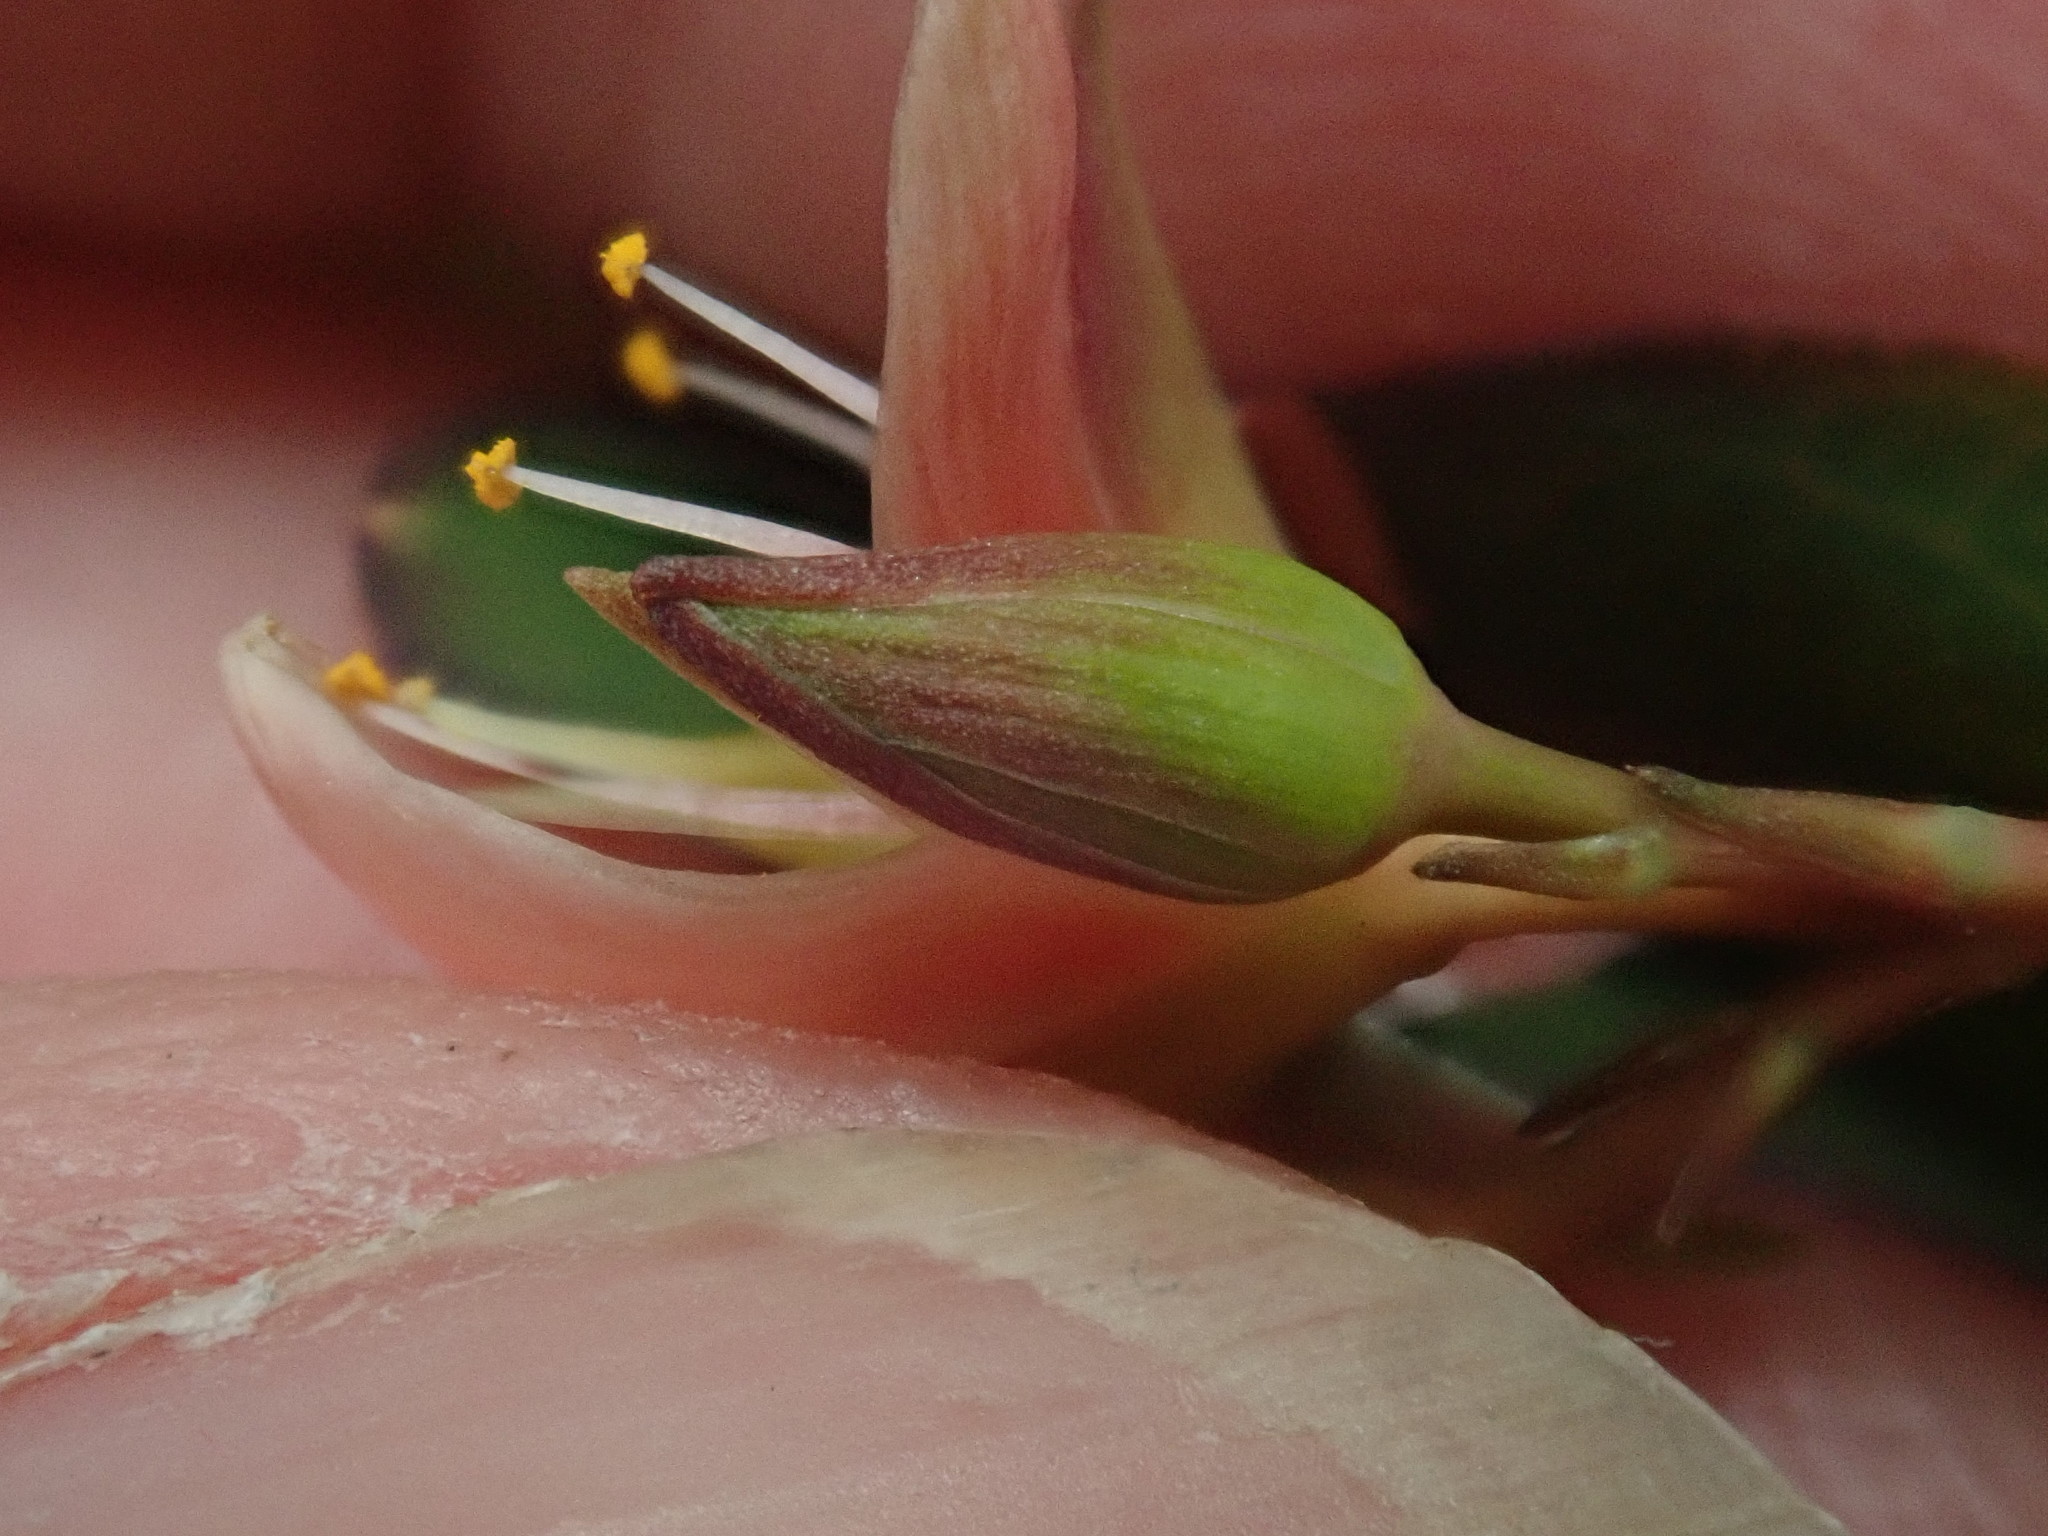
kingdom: Plantae
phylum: Tracheophyta
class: Magnoliopsida
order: Malpighiales
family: Hypericaceae
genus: Triadenum
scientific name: Triadenum virginicum
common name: Marsh st. john's-wort
